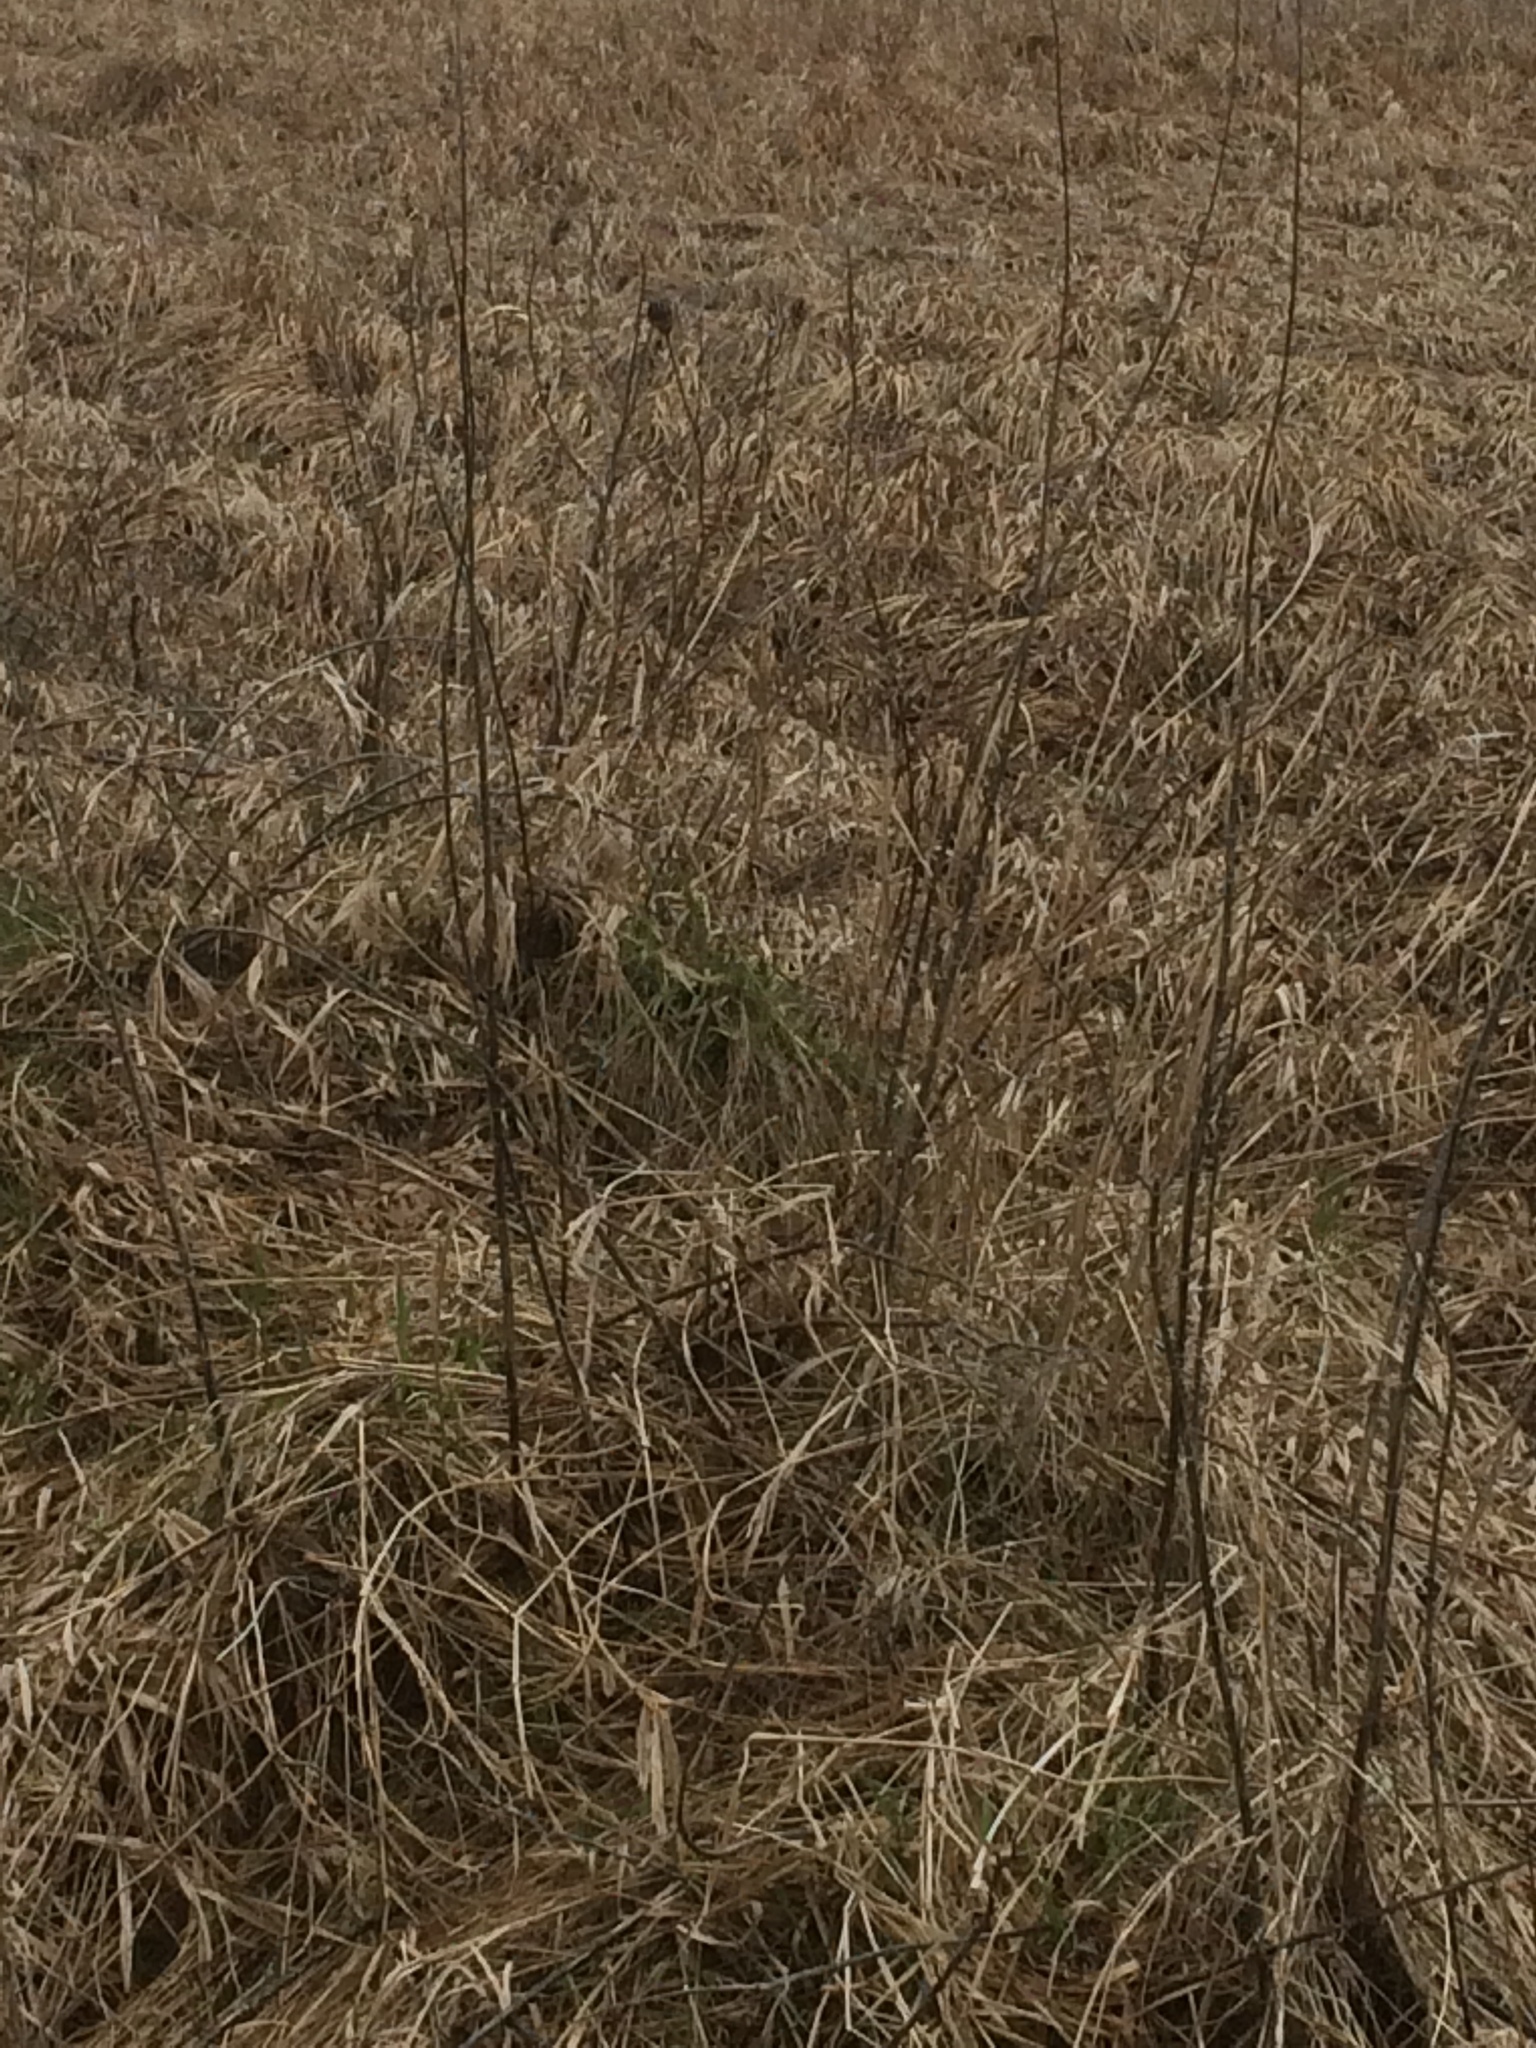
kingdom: Plantae
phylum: Tracheophyta
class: Magnoliopsida
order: Apiales
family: Apiaceae
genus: Daucus
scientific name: Daucus carota
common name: Wild carrot
